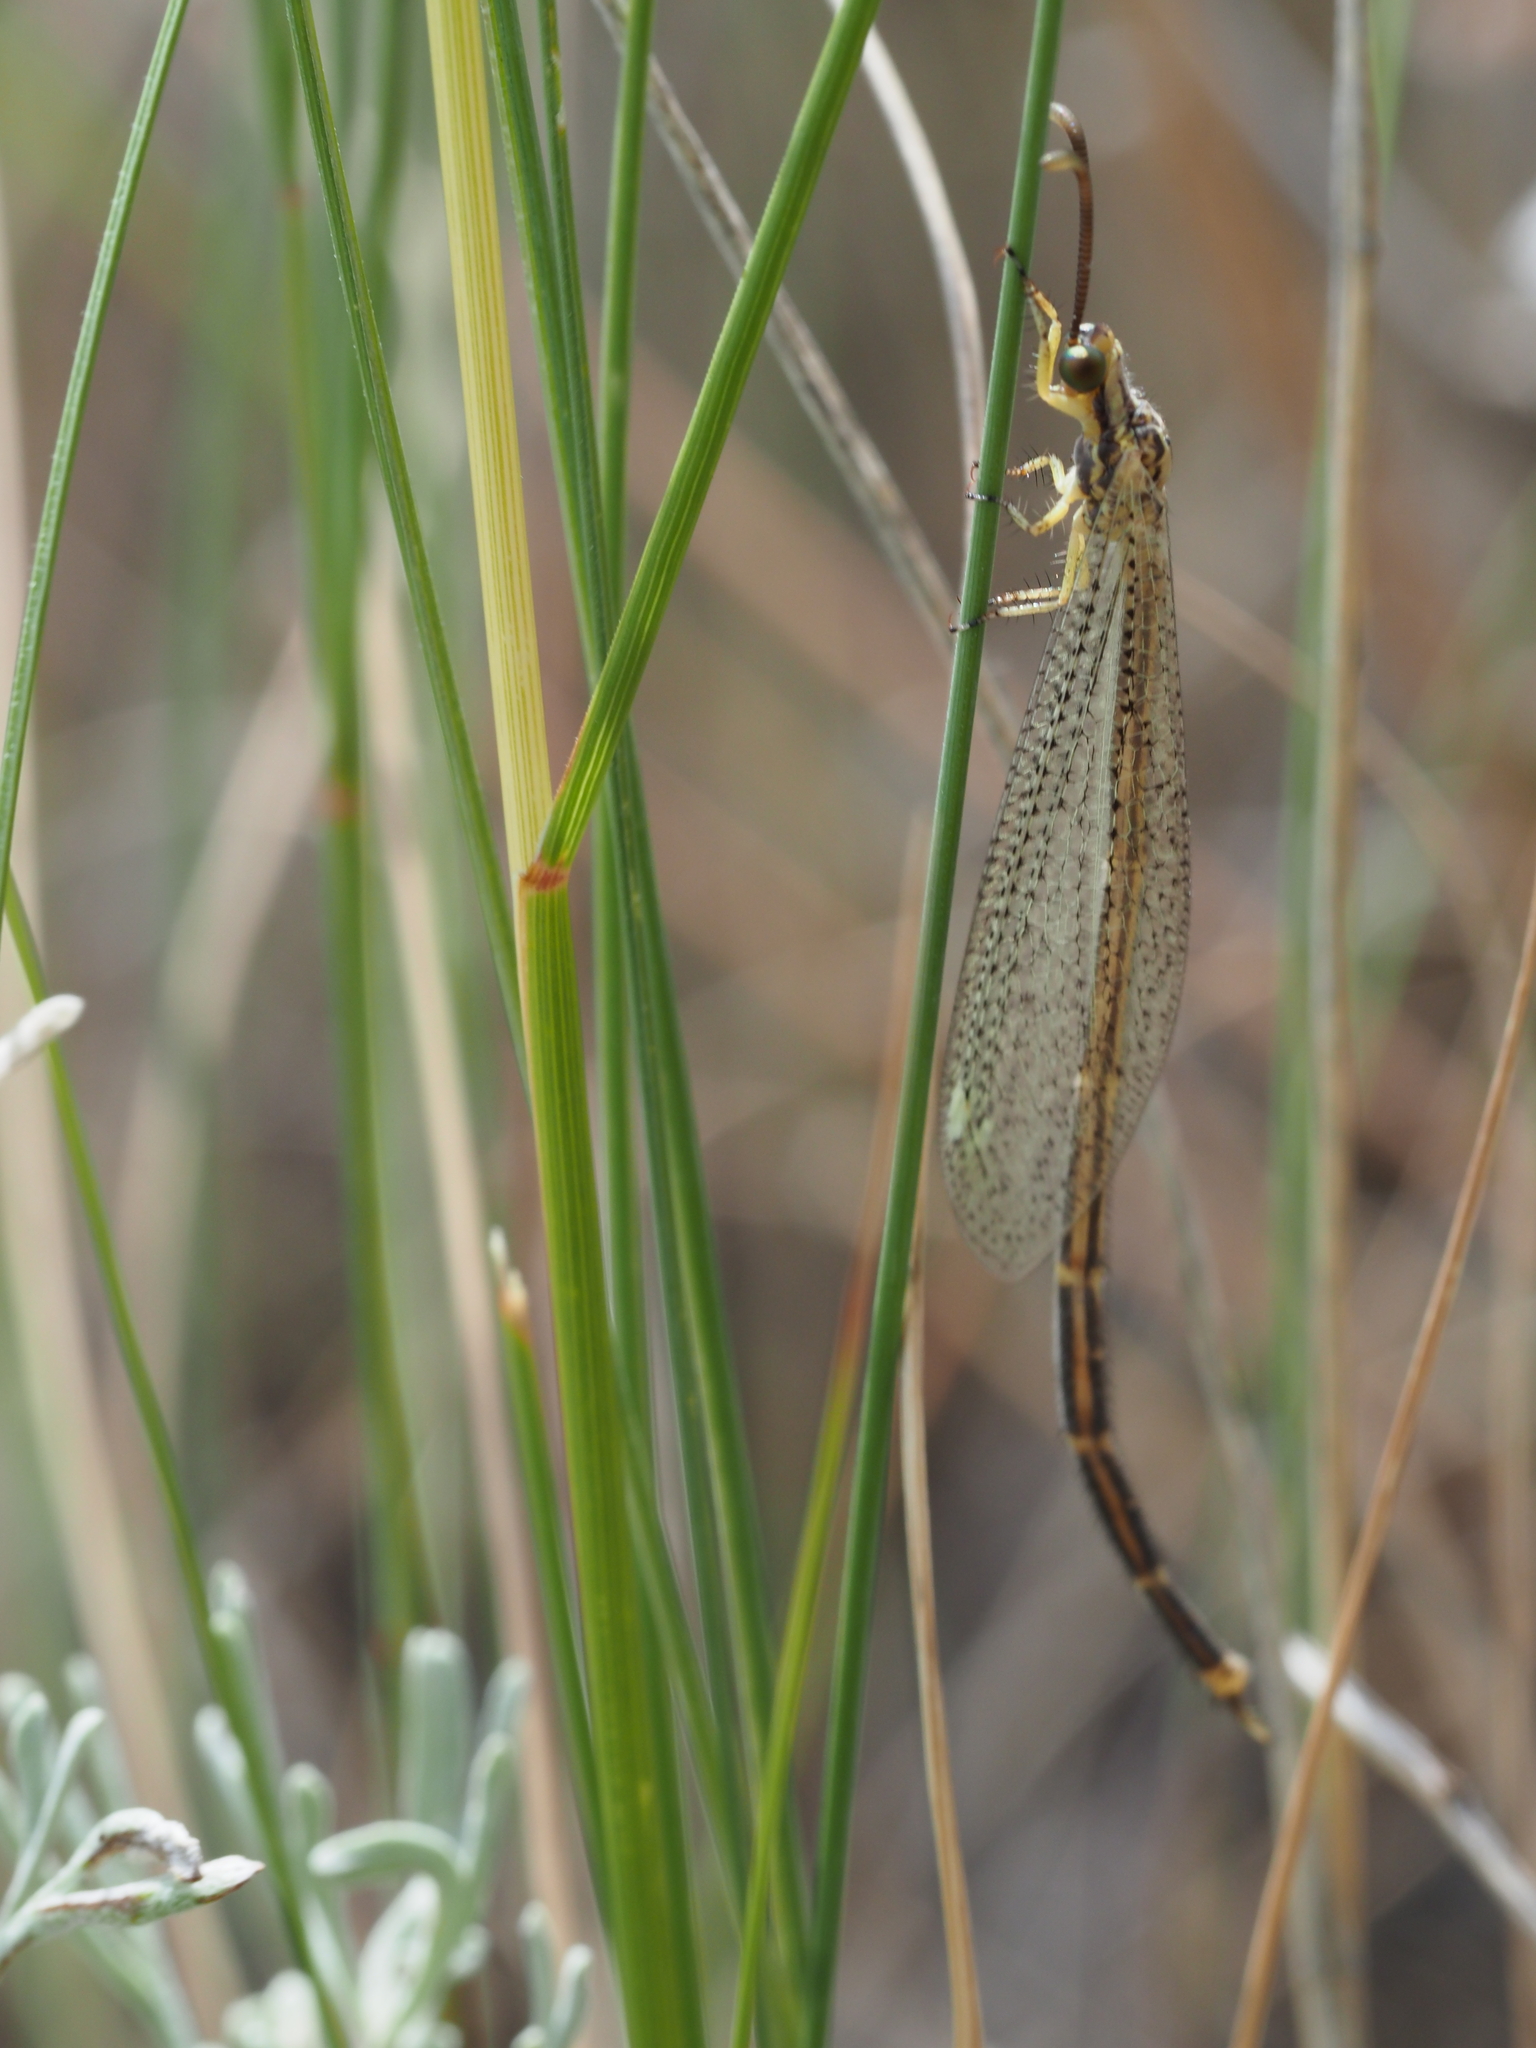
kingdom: Animalia
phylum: Arthropoda
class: Insecta
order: Neuroptera
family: Myrmeleontidae
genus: Brachynemurus
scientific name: Brachynemurus abdominalis
